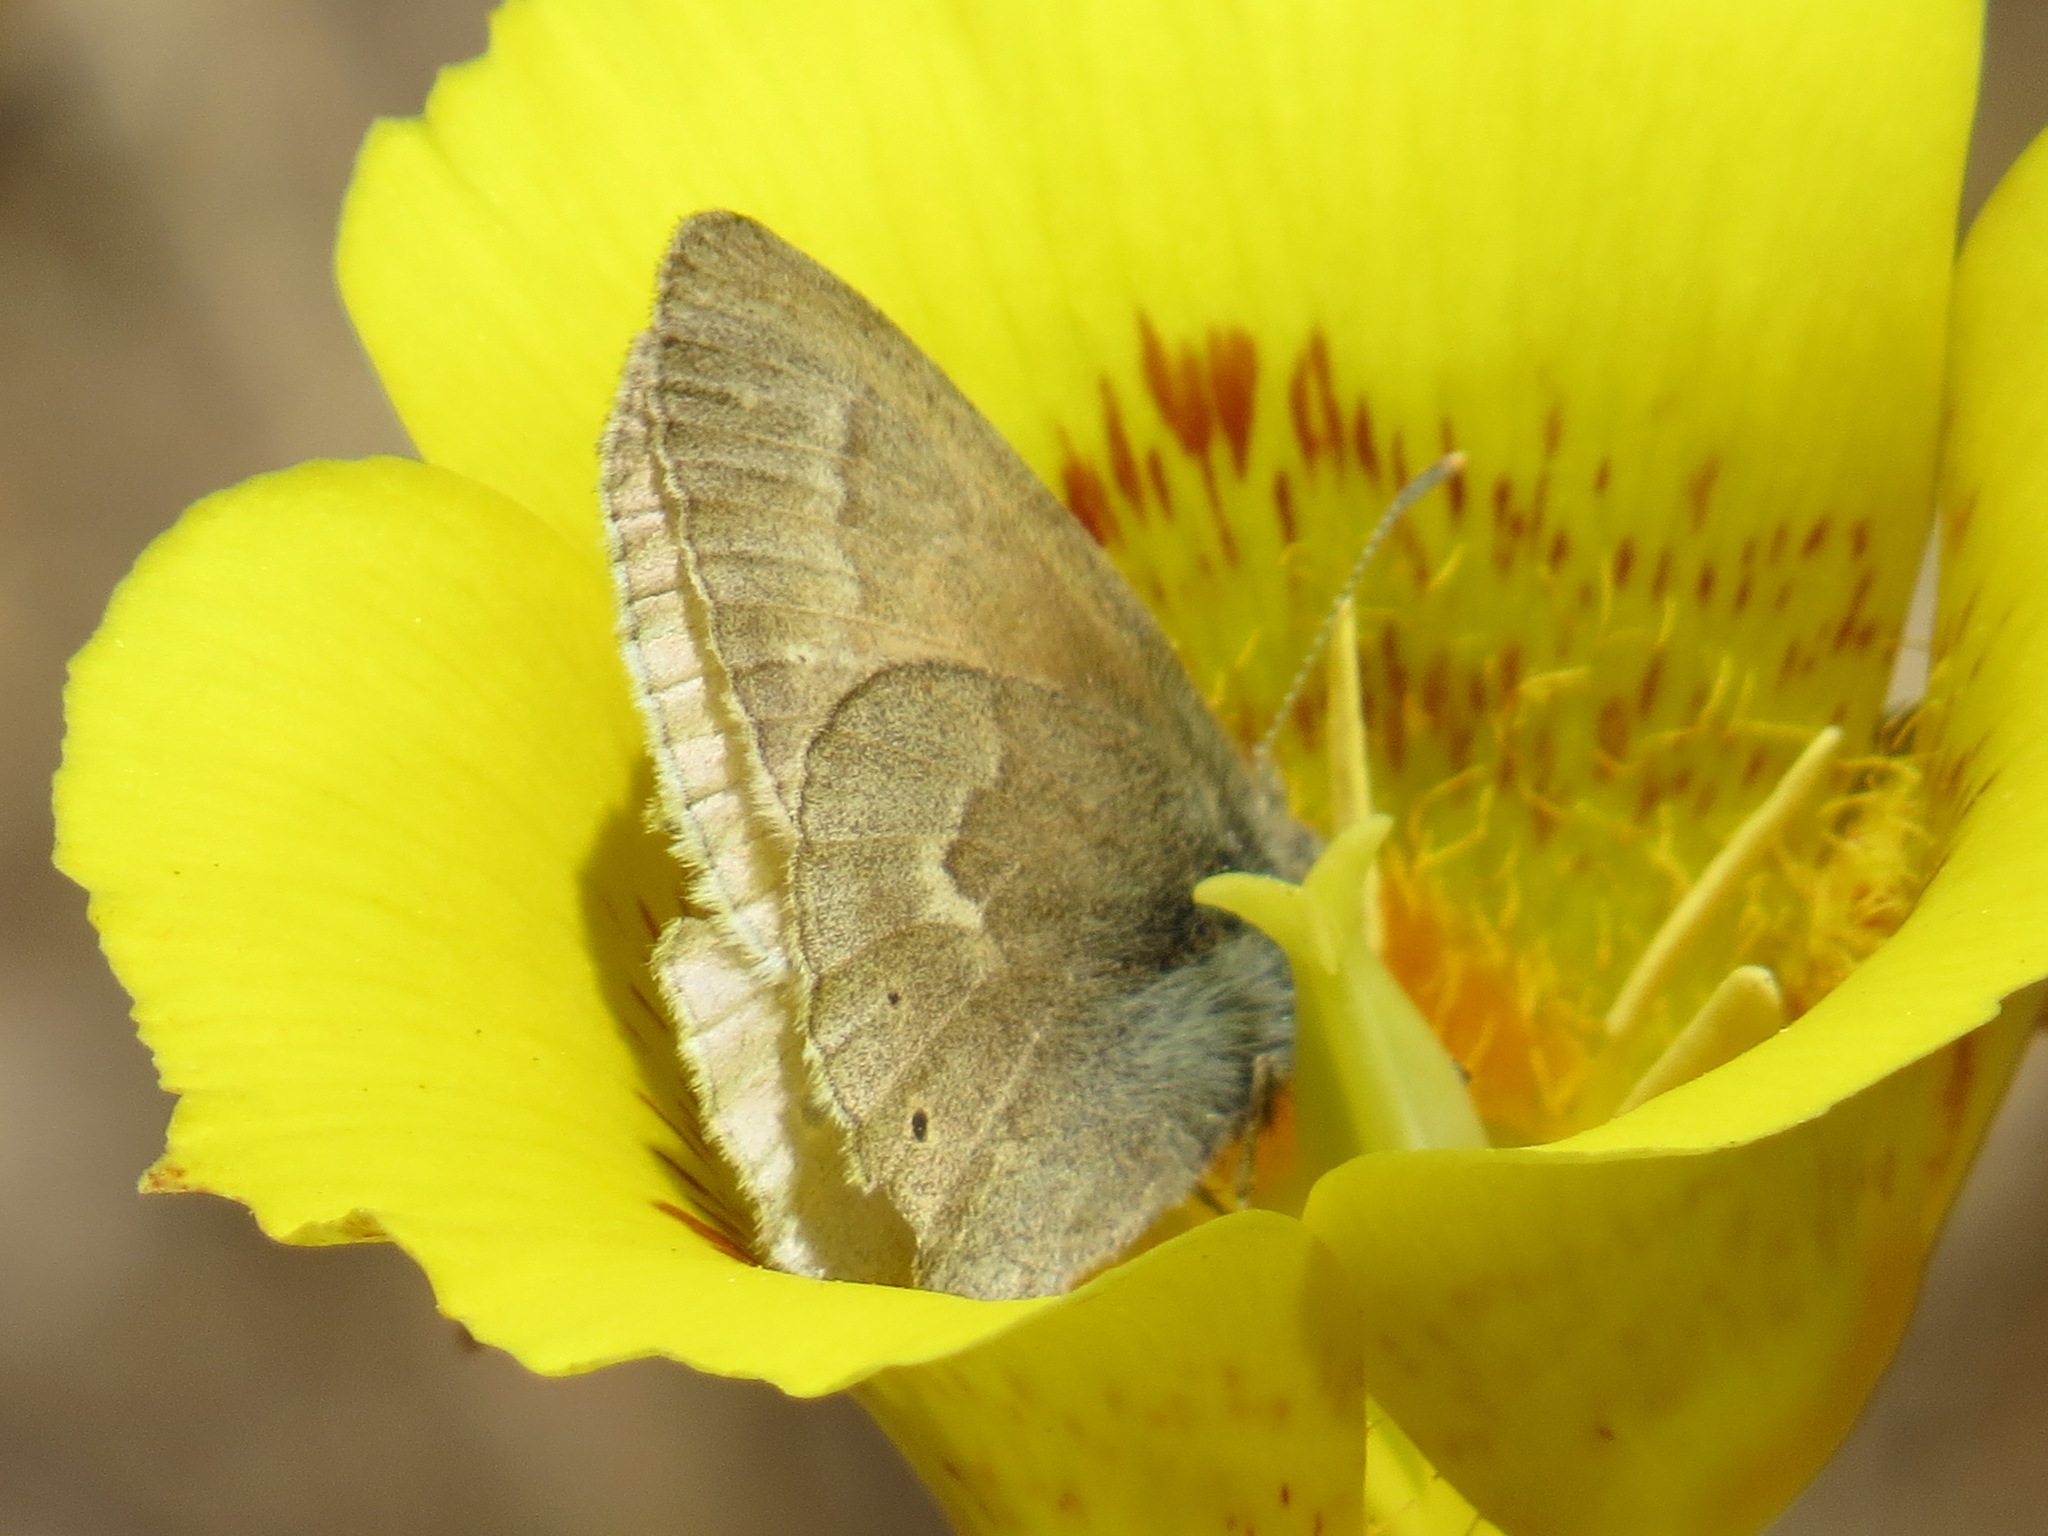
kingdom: Animalia
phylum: Arthropoda
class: Insecta
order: Lepidoptera
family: Nymphalidae
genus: Coenonympha
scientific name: Coenonympha california
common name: Common ringlet
